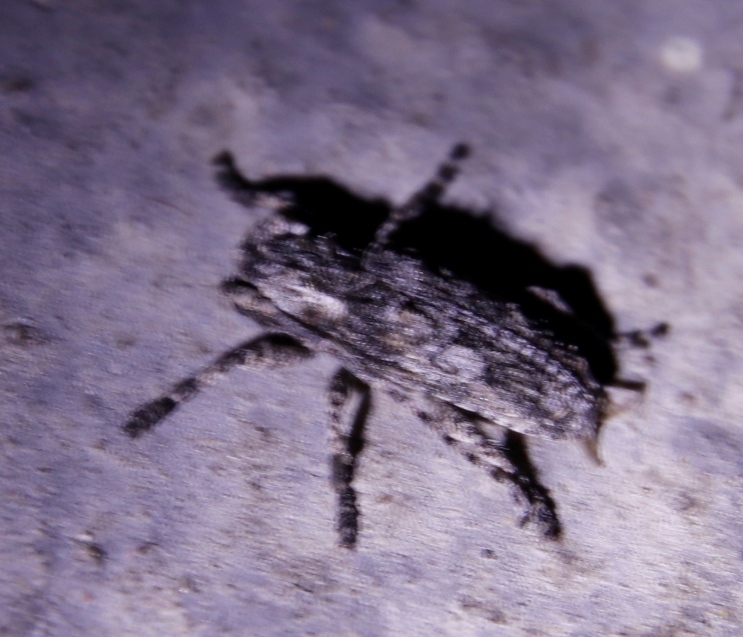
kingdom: Animalia
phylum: Arthropoda
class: Insecta
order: Coleoptera
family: Cerambycidae
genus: Hecyromorpha
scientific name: Hecyromorpha plagicollis
